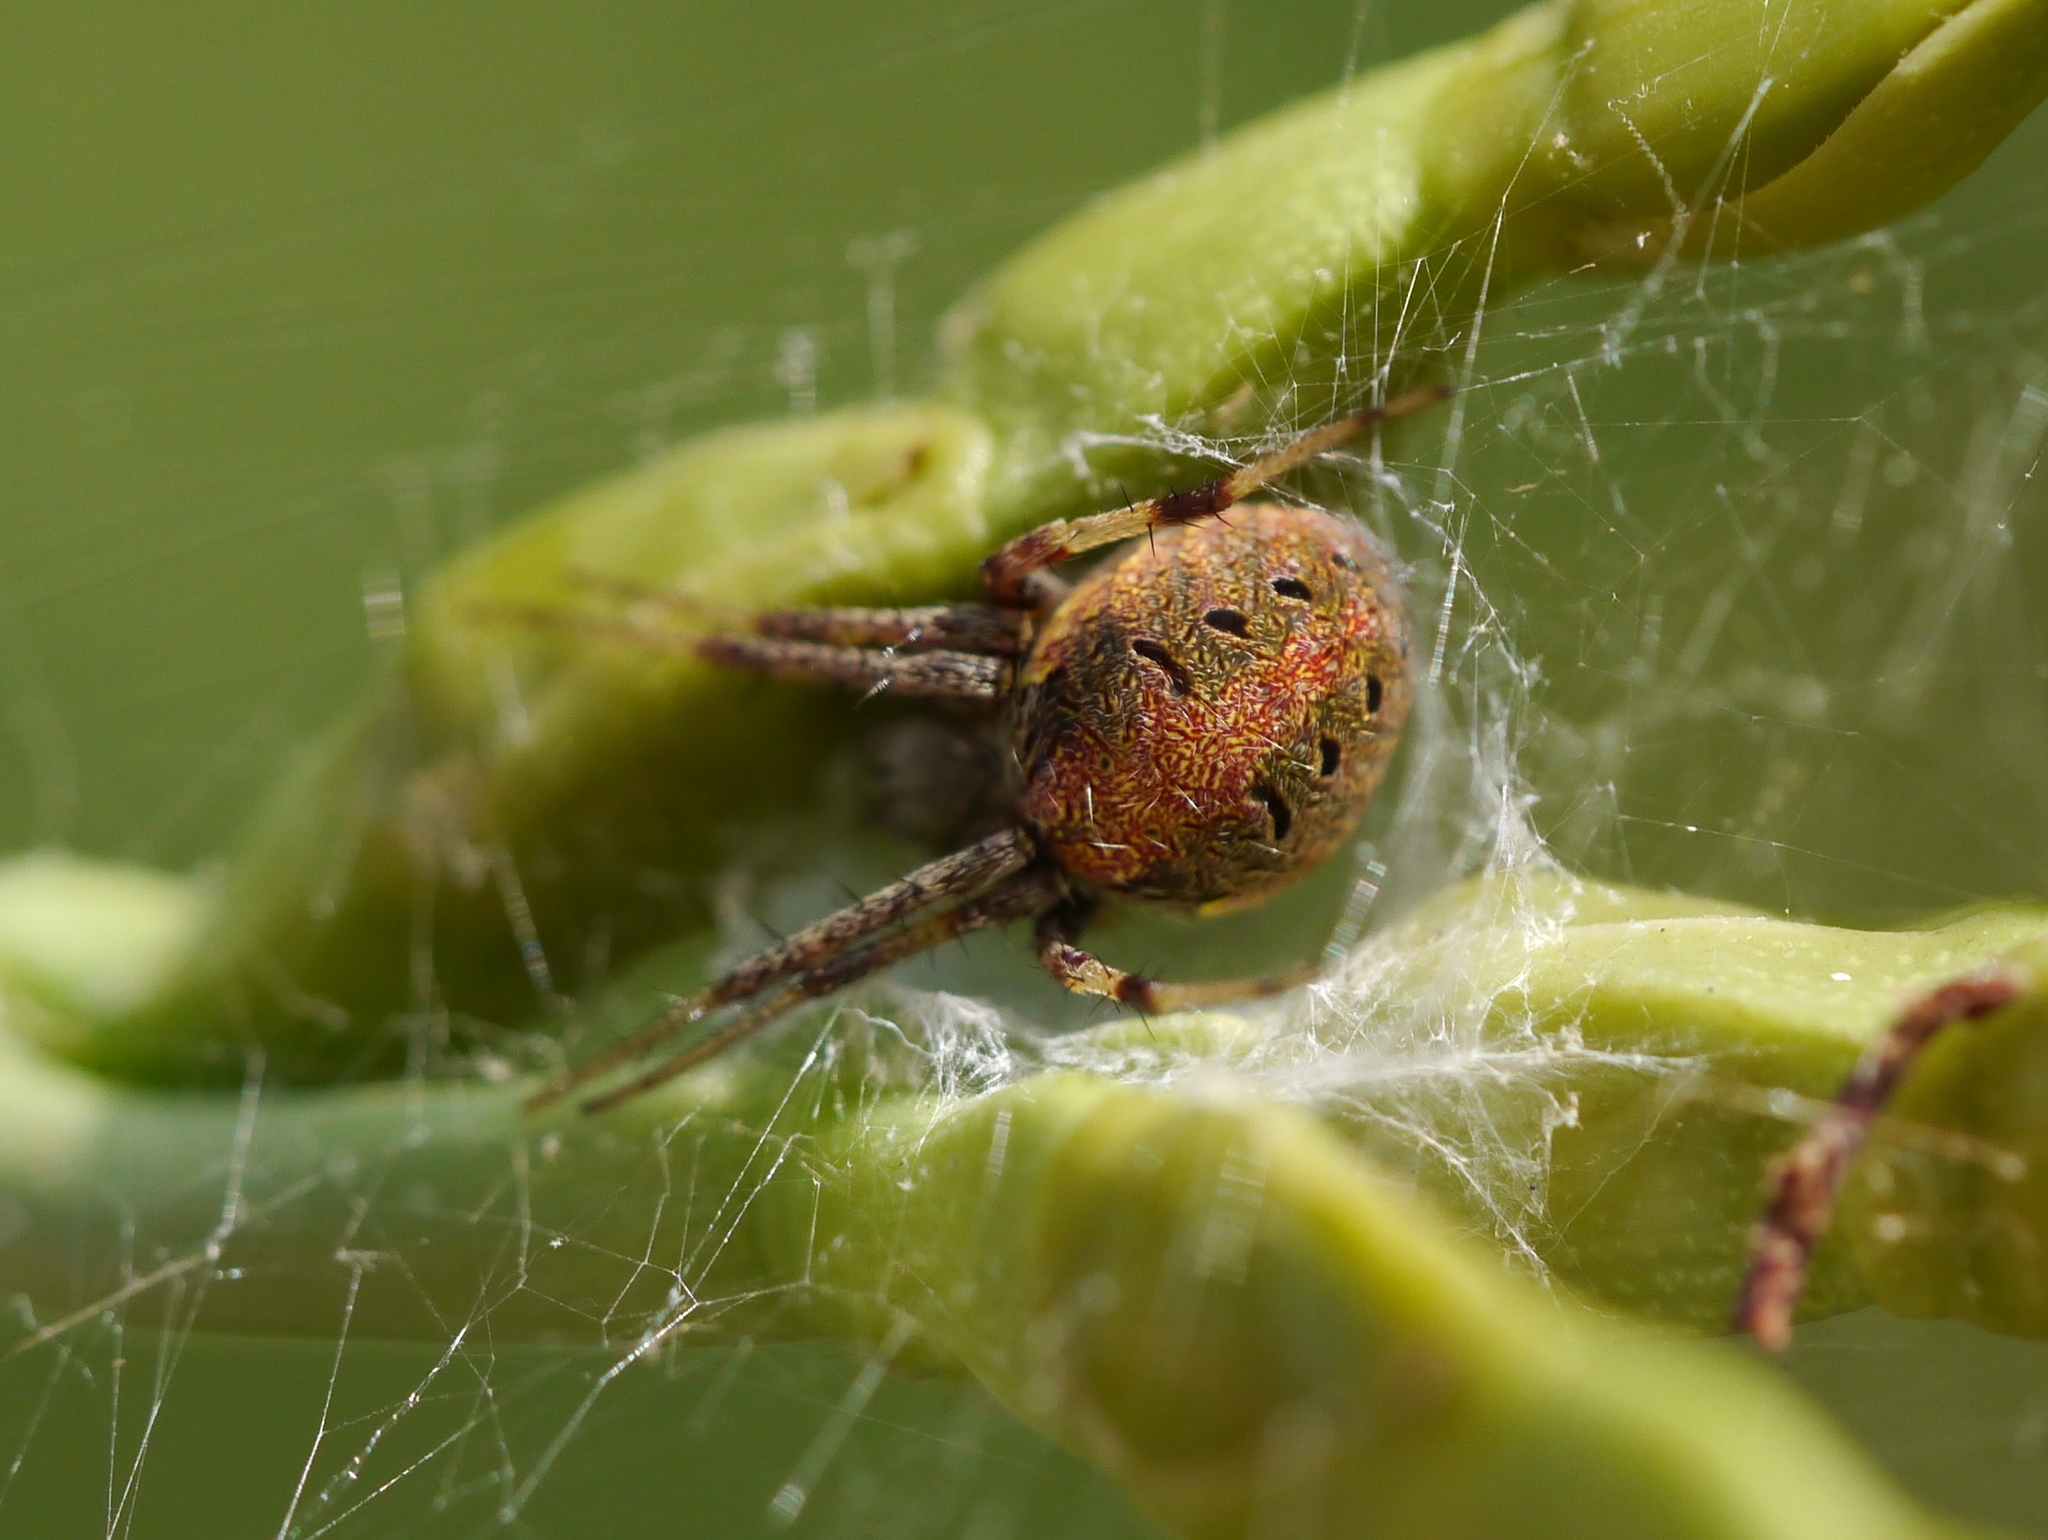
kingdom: Animalia
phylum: Arthropoda
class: Arachnida
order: Araneae
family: Araneidae
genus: Neoscona
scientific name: Neoscona arabesca
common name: Orb weavers
